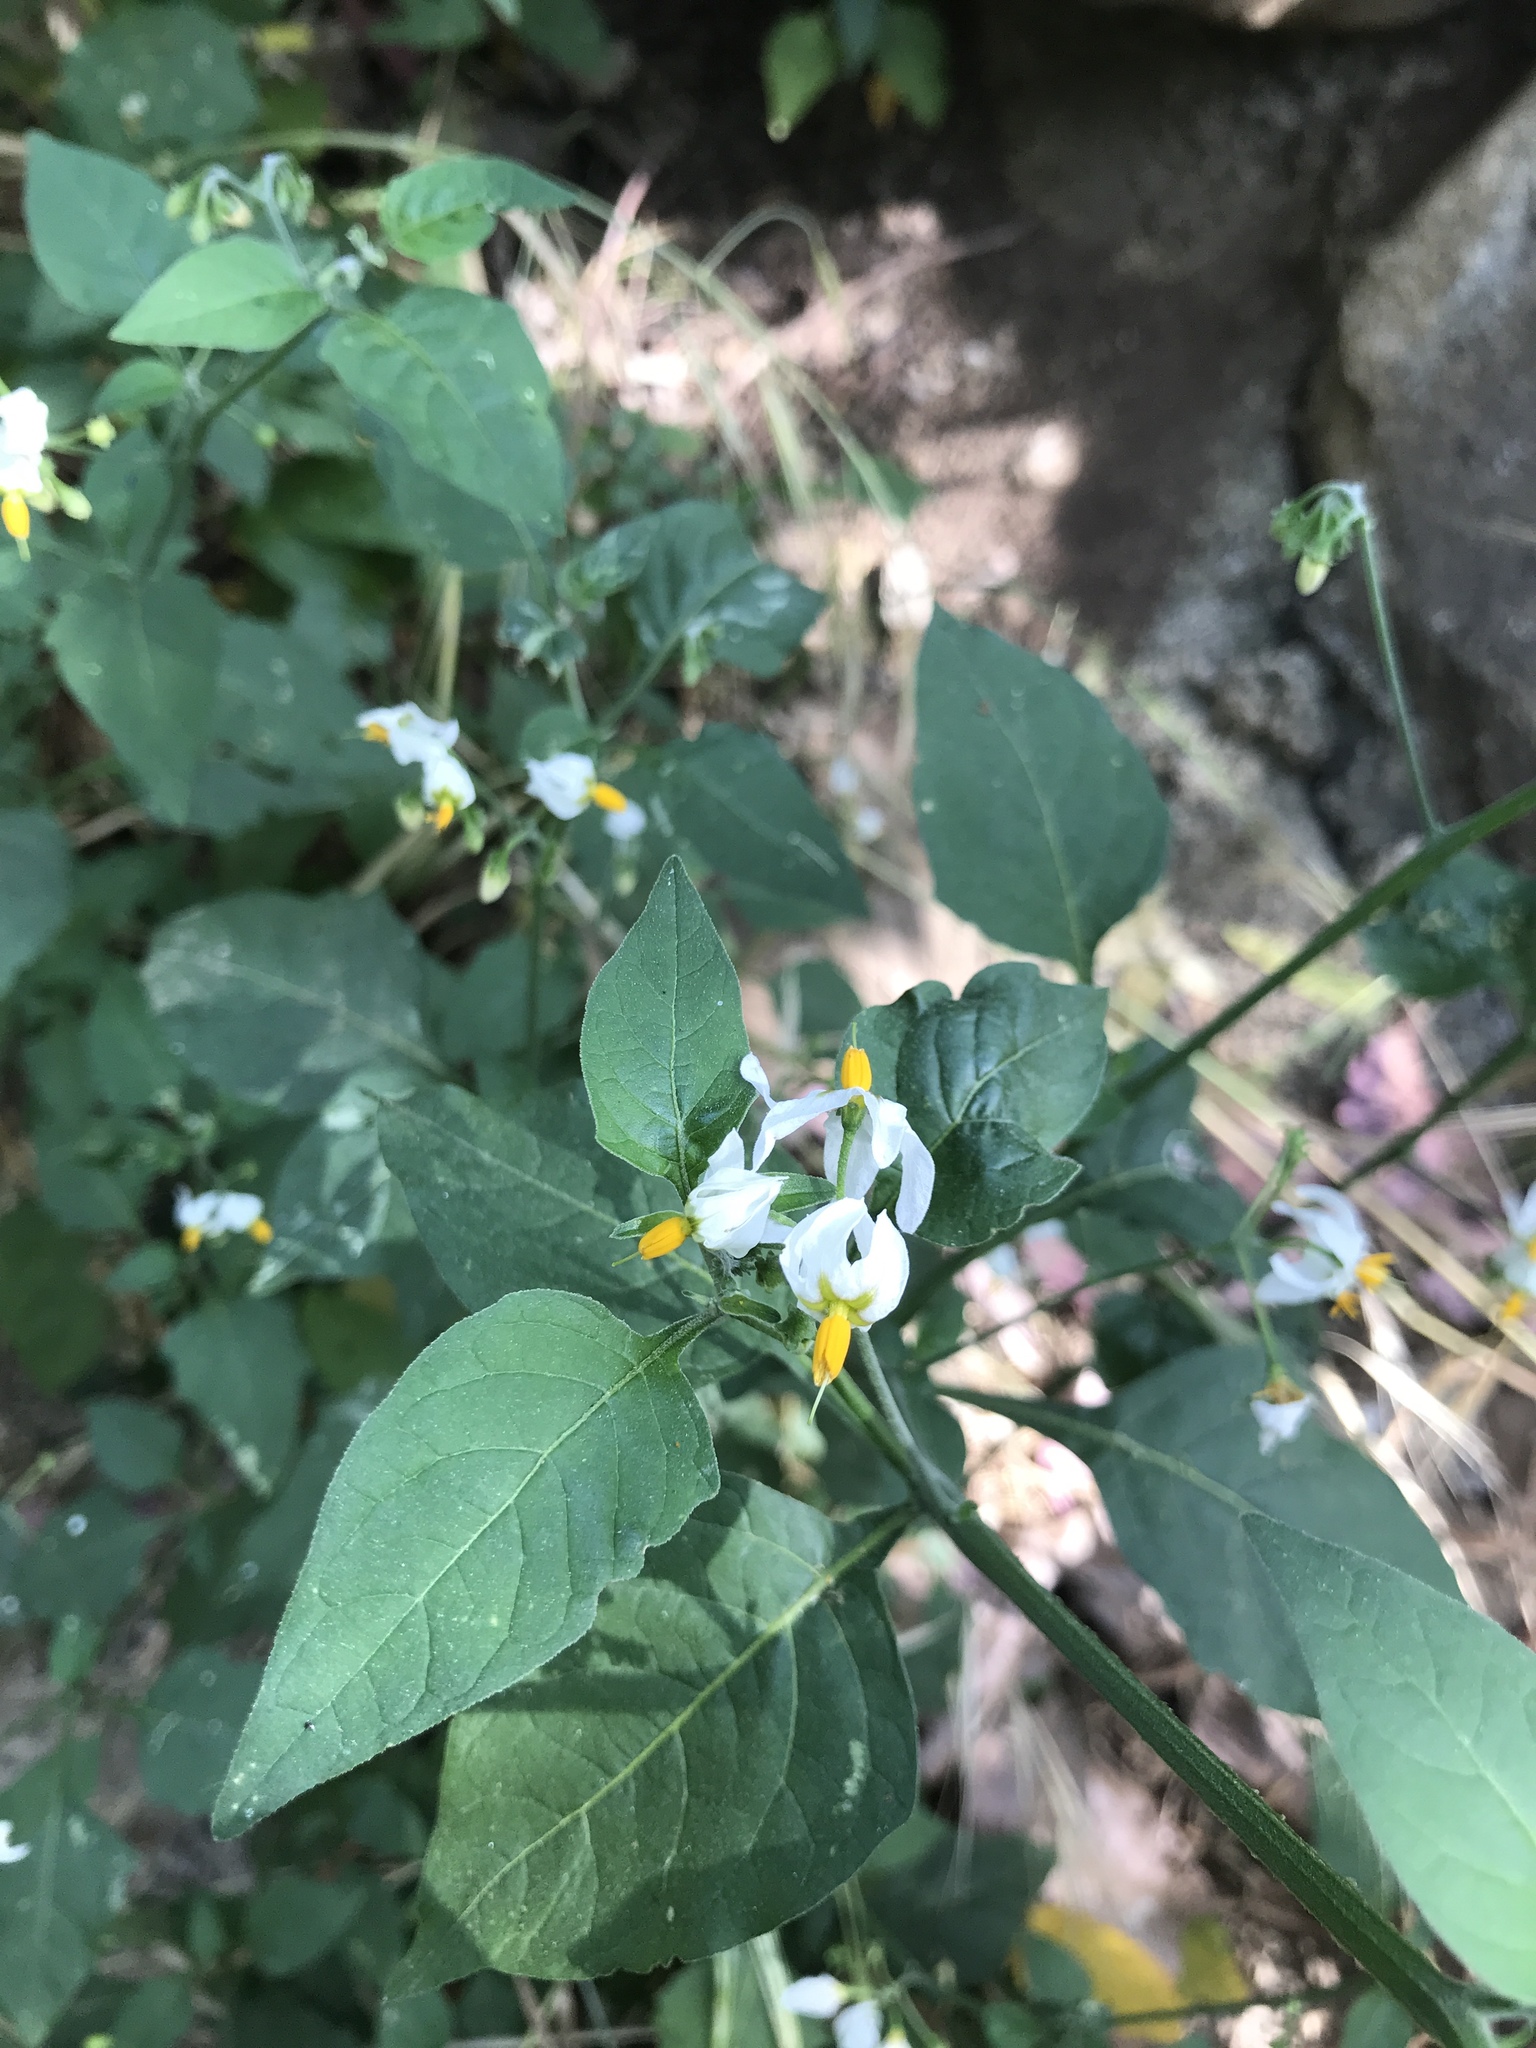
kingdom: Plantae
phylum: Tracheophyta
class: Magnoliopsida
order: Solanales
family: Solanaceae
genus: Solanum
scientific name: Solanum douglasii
